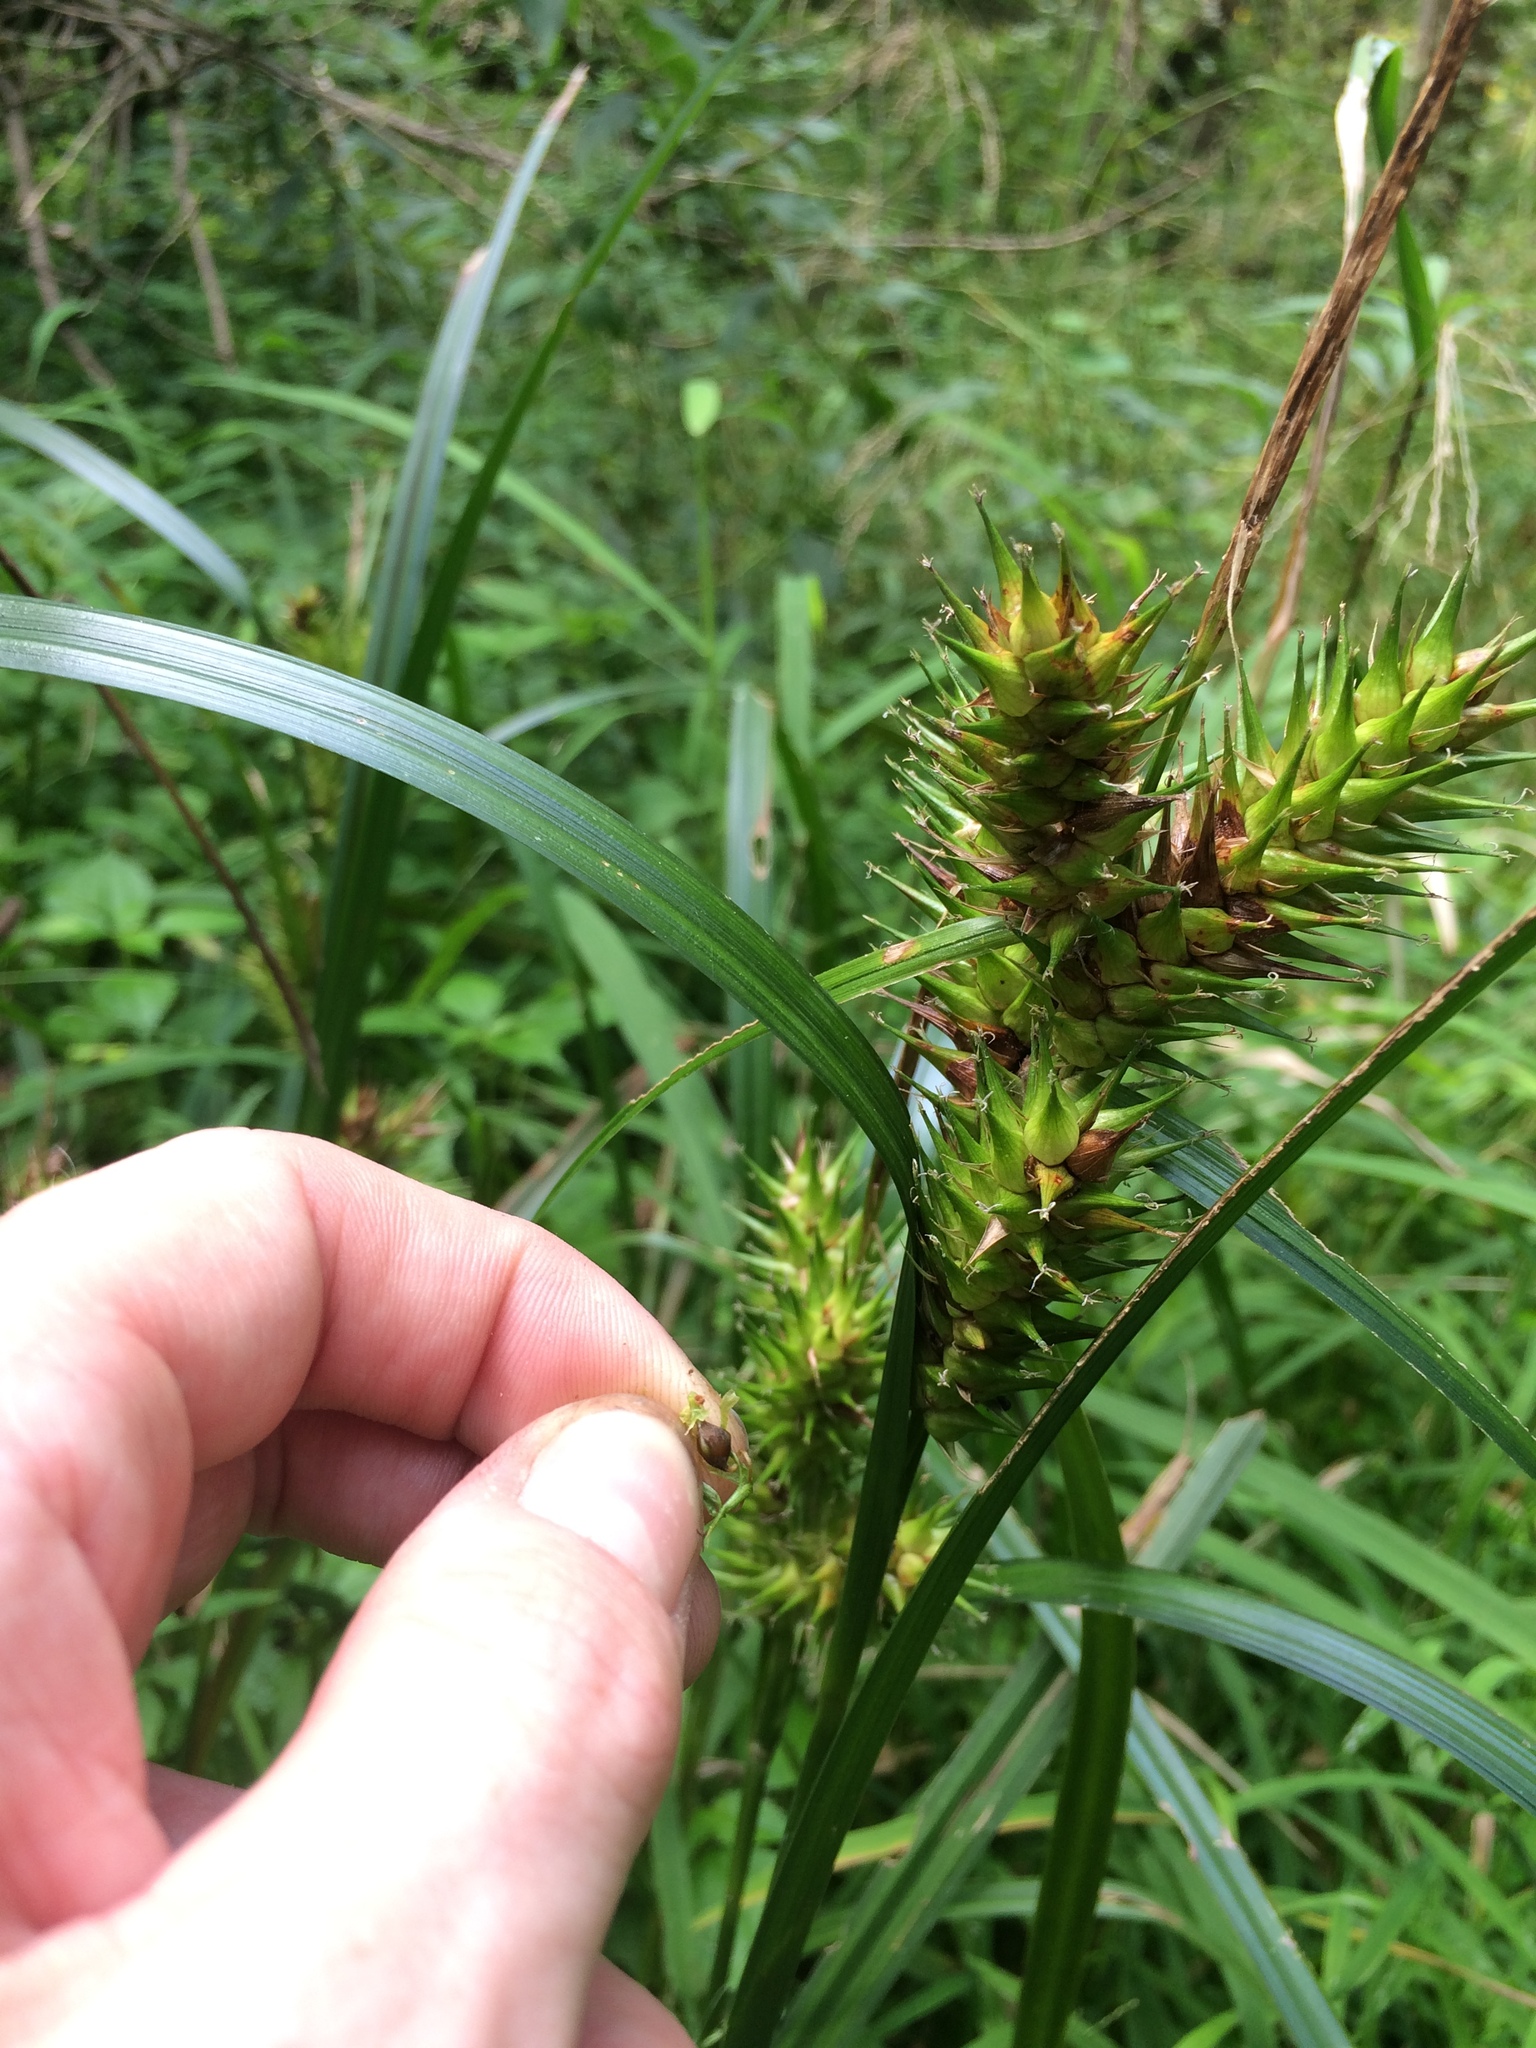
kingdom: Plantae
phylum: Tracheophyta
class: Liliopsida
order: Poales
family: Cyperaceae
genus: Carex
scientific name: Carex lupulina
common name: Hop sedge
